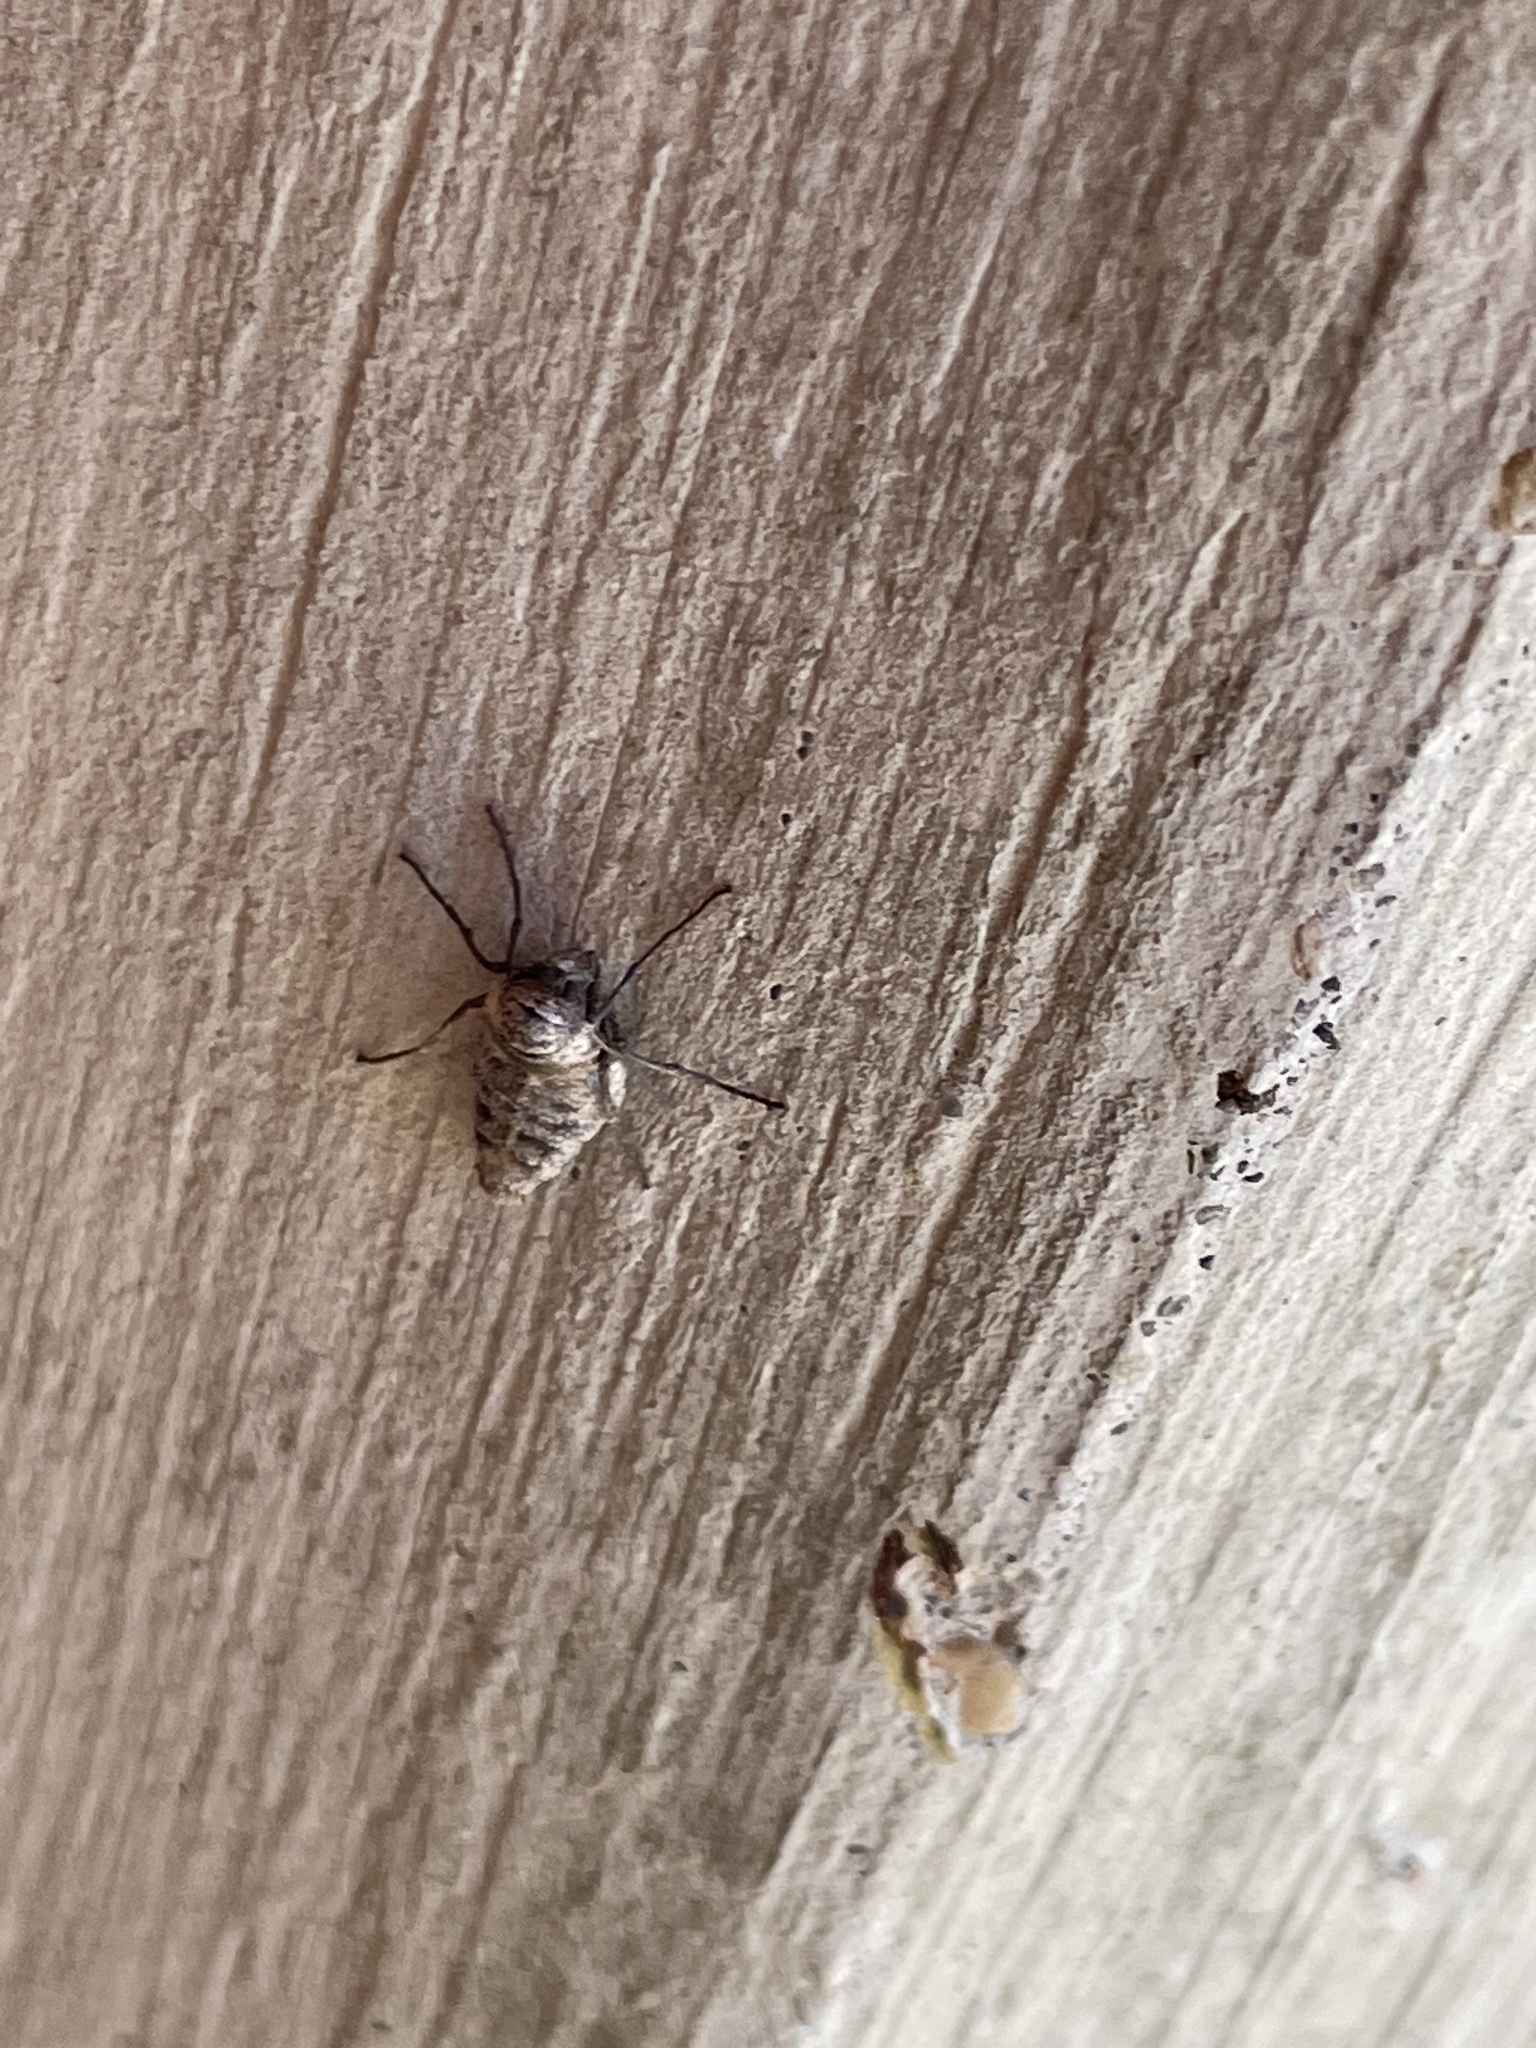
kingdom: Animalia
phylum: Arthropoda
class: Insecta
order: Lepidoptera
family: Geometridae
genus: Alsophila
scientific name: Alsophila pometaria
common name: Fall cankerworm
